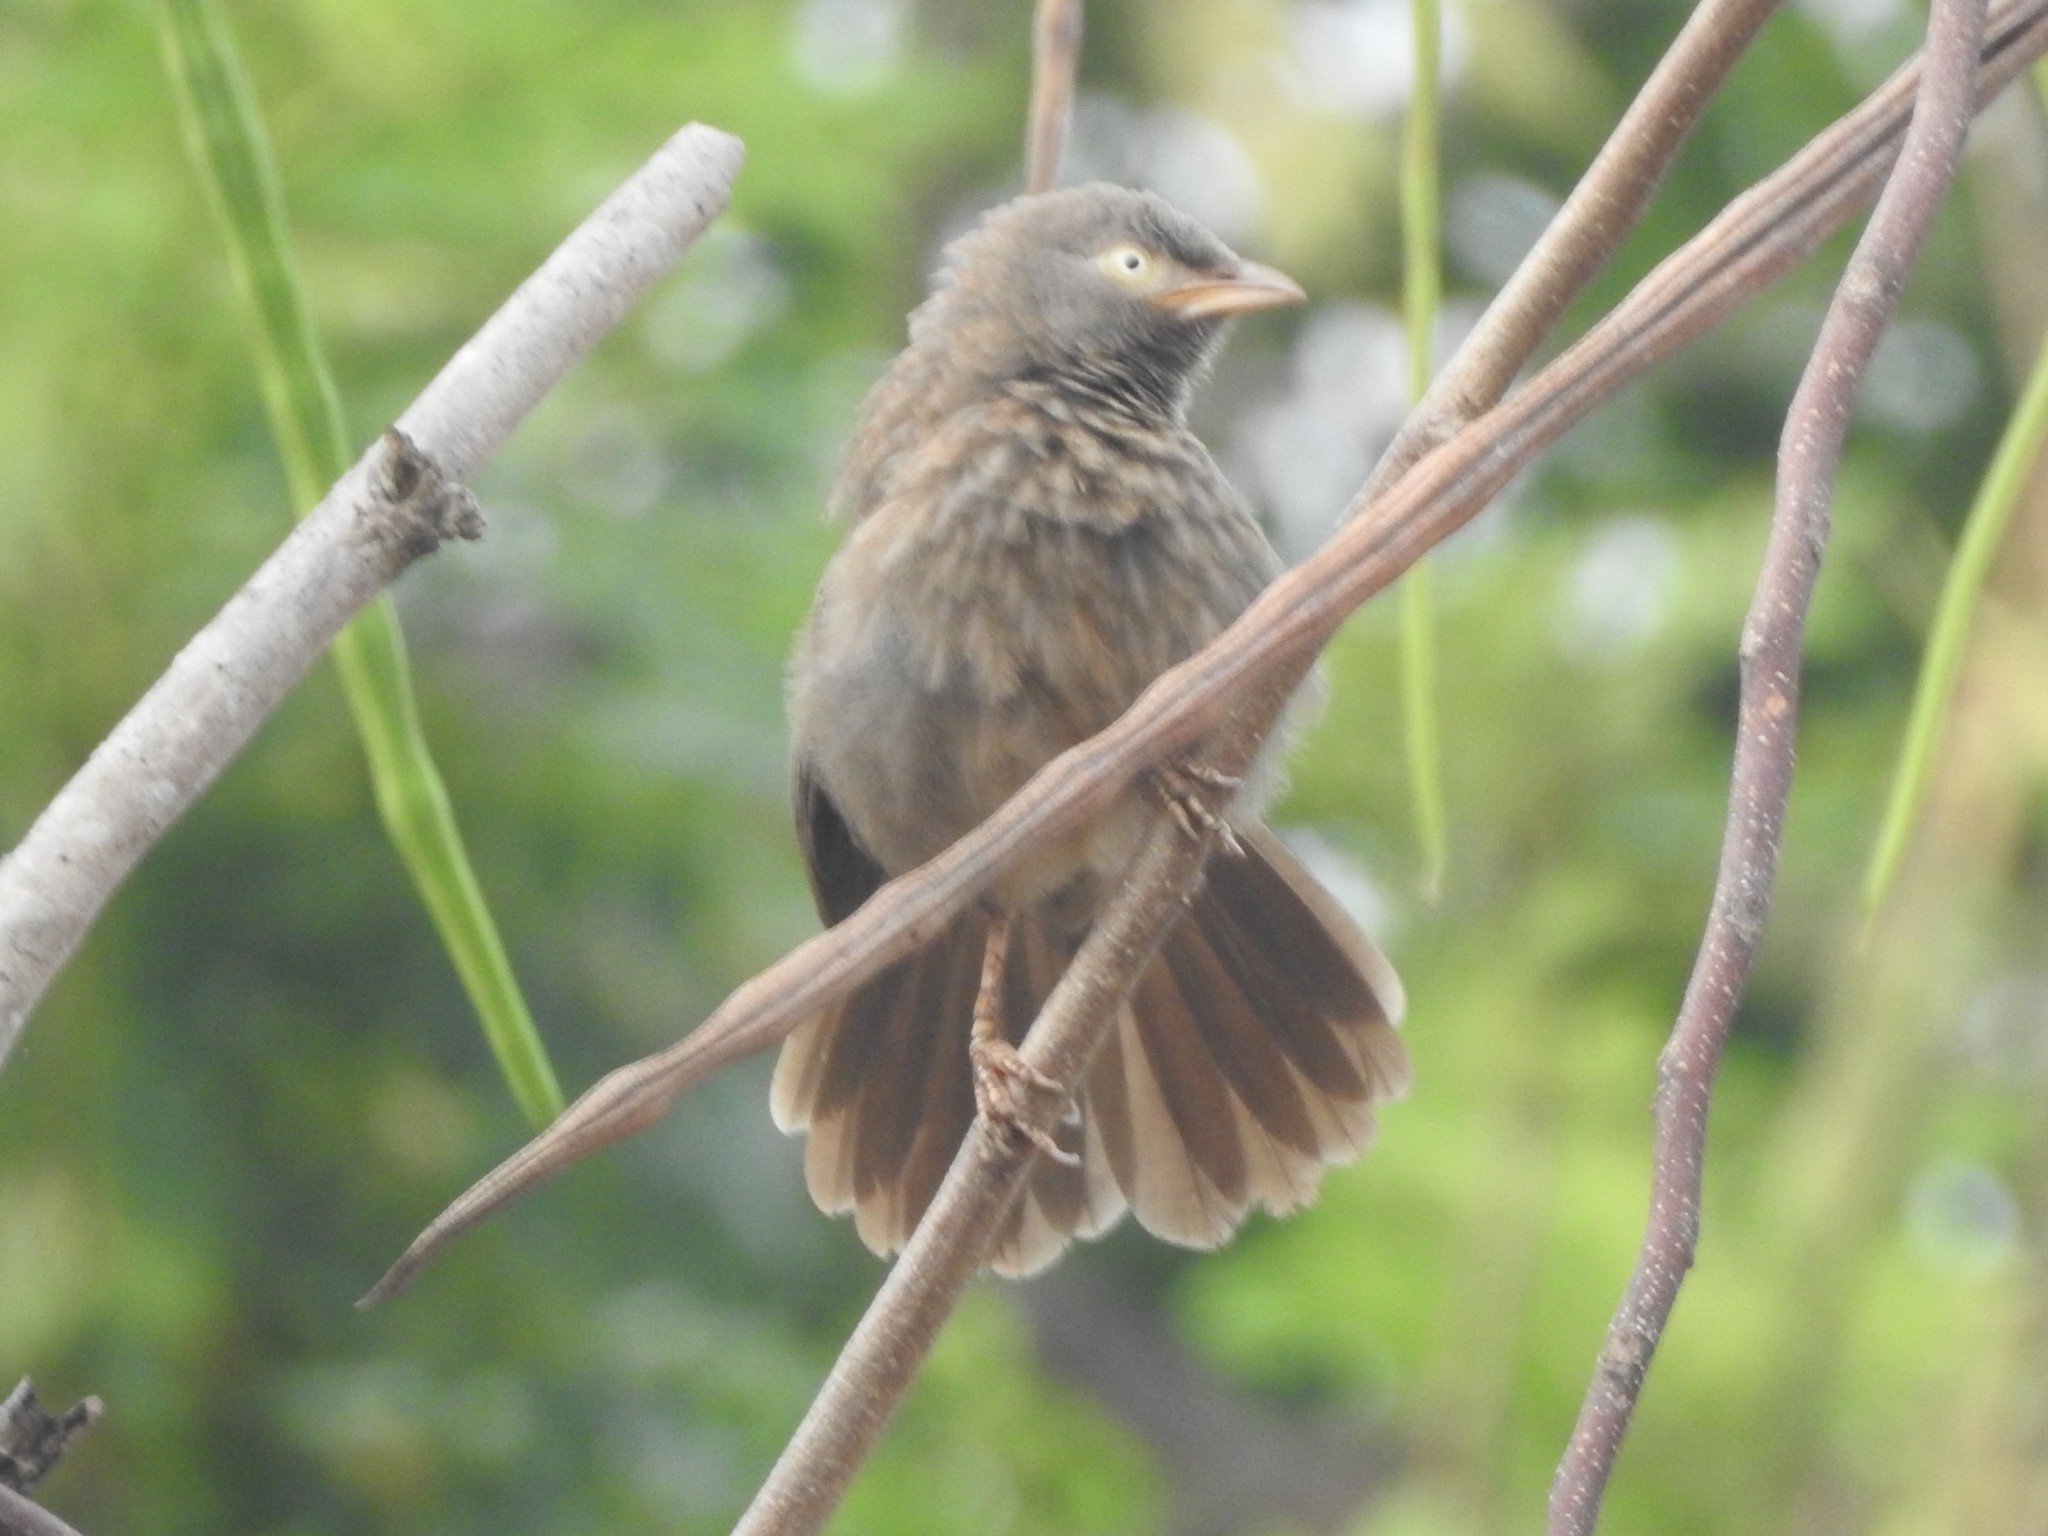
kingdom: Animalia
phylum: Chordata
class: Aves
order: Passeriformes
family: Leiothrichidae
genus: Turdoides
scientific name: Turdoides striata
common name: Jungle babbler
